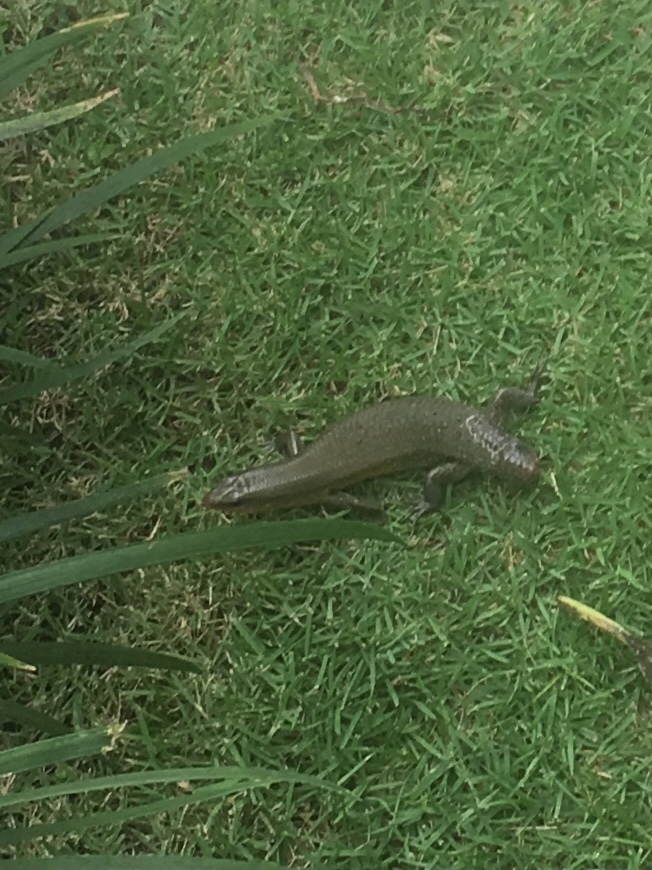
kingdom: Animalia
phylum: Chordata
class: Squamata
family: Scincidae
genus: Eutropis
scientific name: Eutropis multifasciata
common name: Common mabuya
